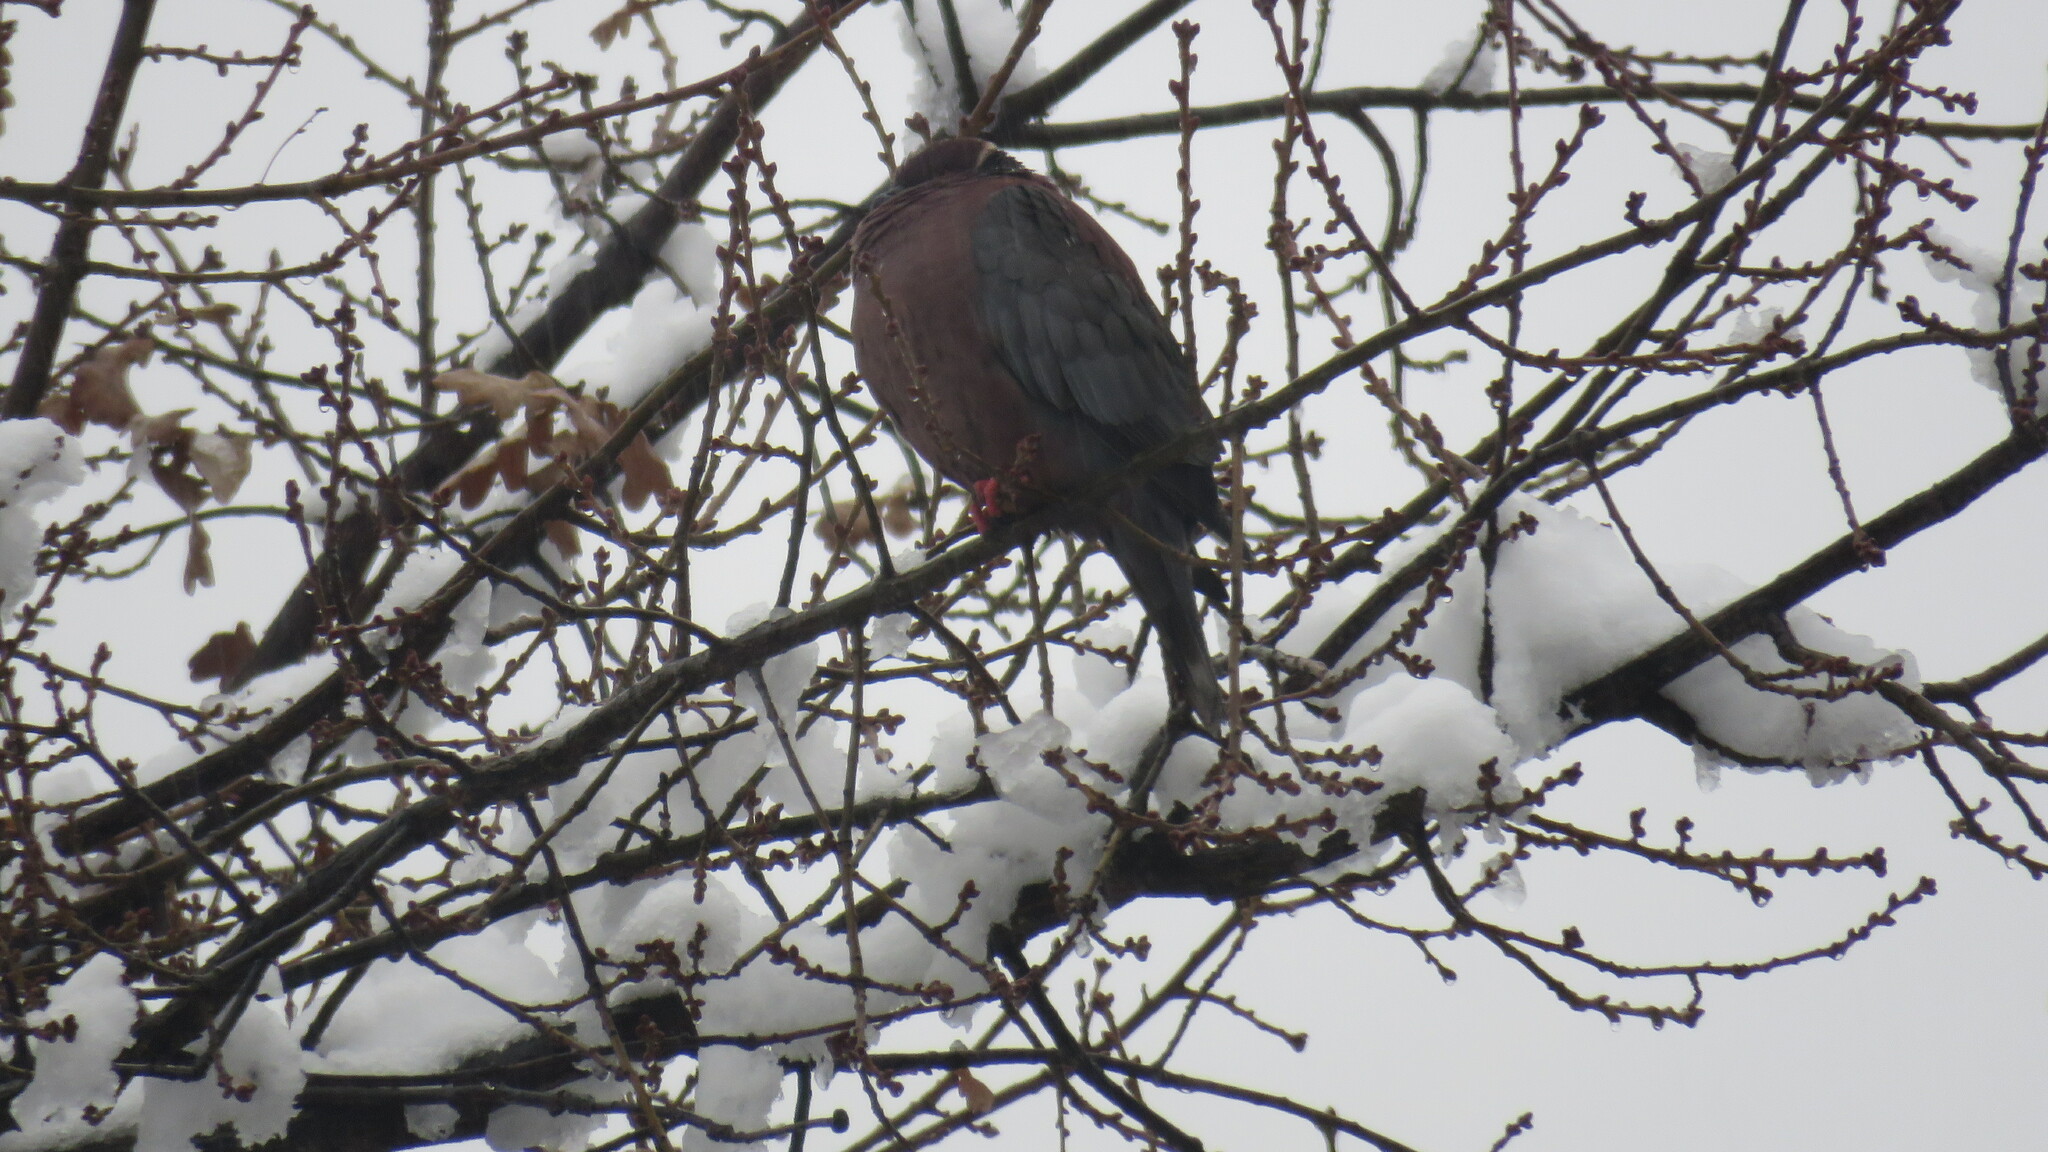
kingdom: Animalia
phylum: Chordata
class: Aves
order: Columbiformes
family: Columbidae
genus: Patagioenas
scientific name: Patagioenas araucana
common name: Chilean pigeon
